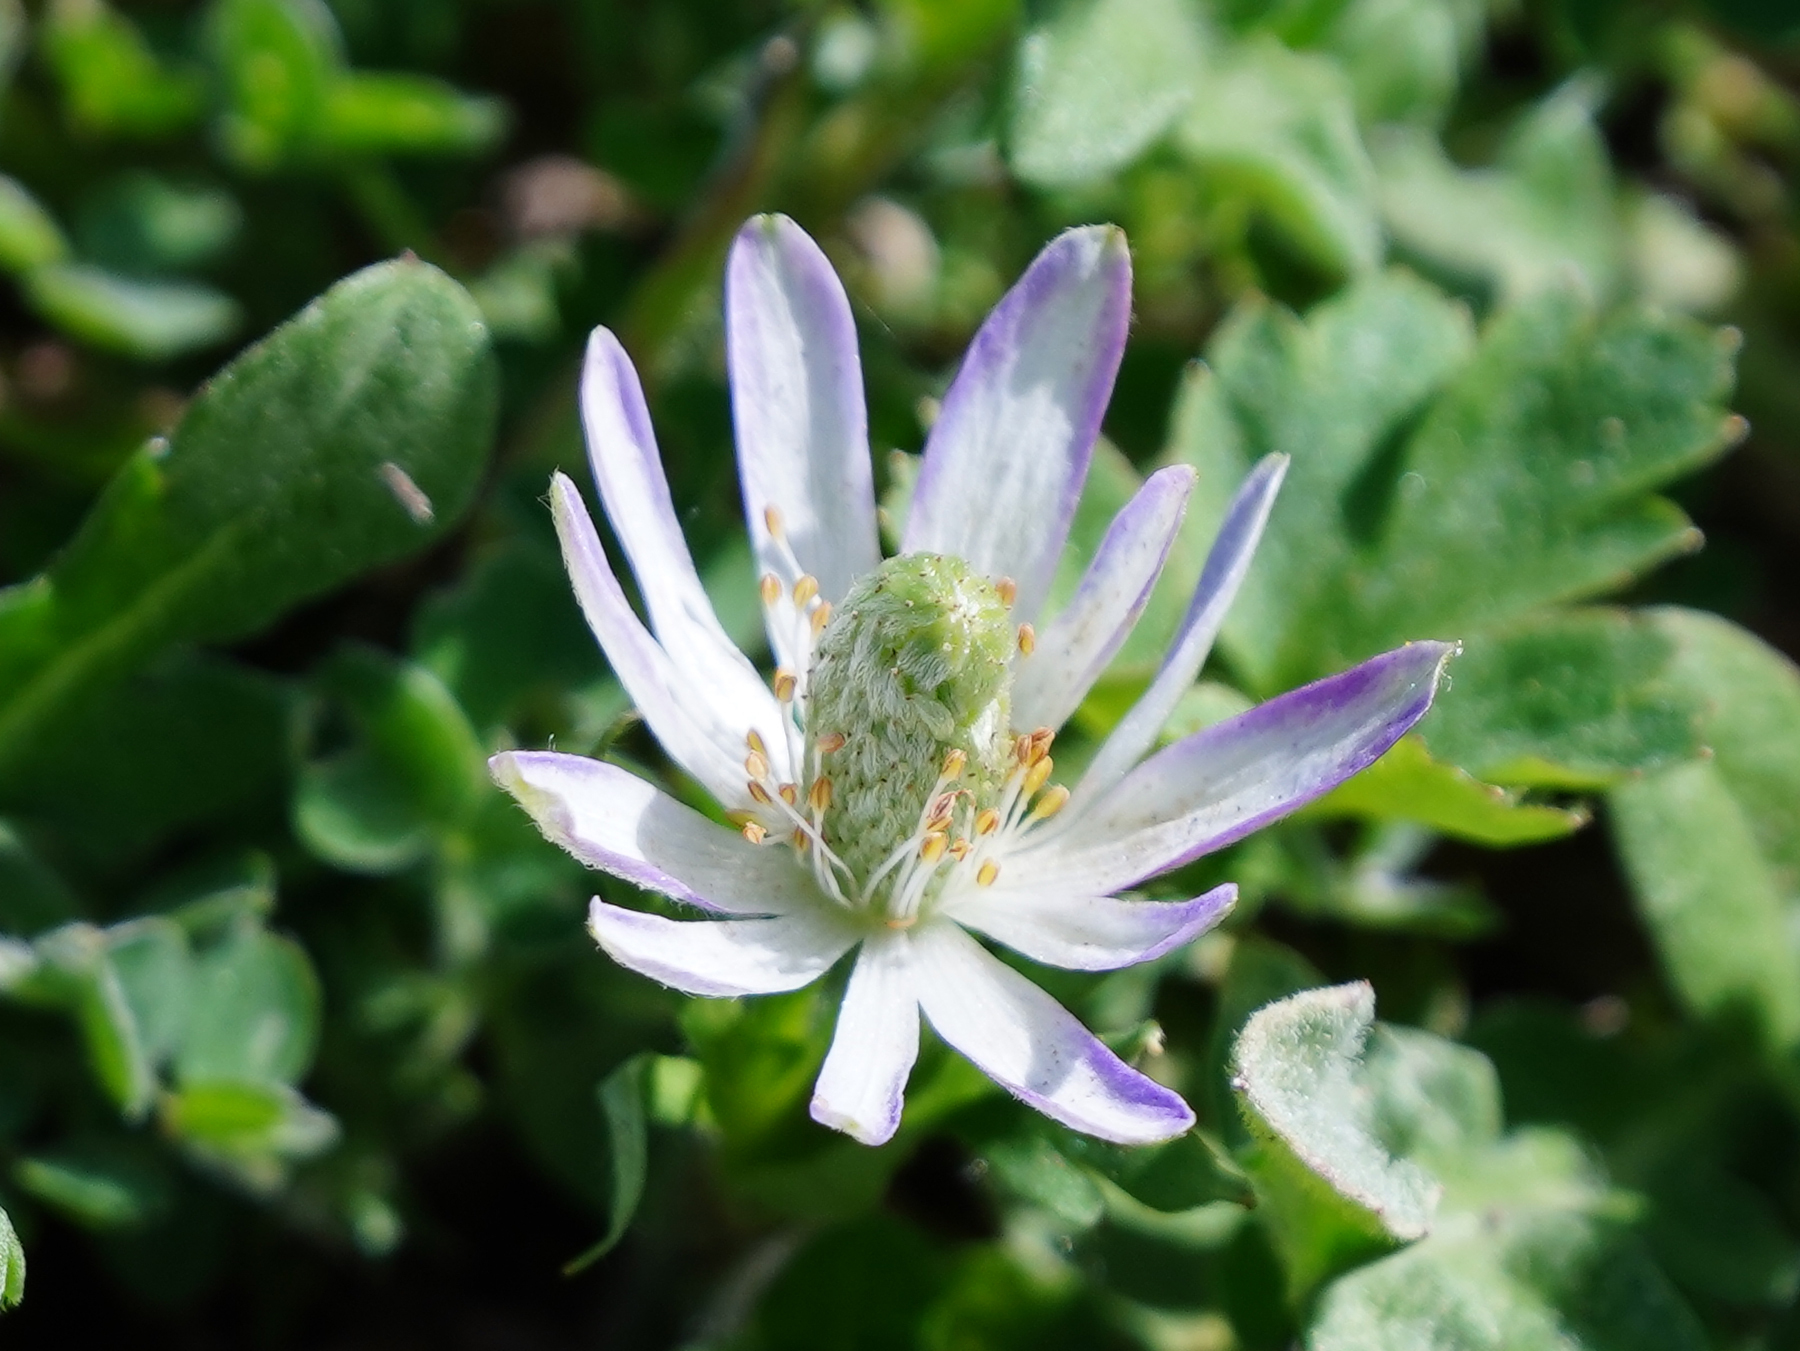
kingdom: Plantae
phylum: Tracheophyta
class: Magnoliopsida
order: Ranunculales
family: Ranunculaceae
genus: Anemone
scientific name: Anemone berlandieri
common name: Ten-petal anemone
